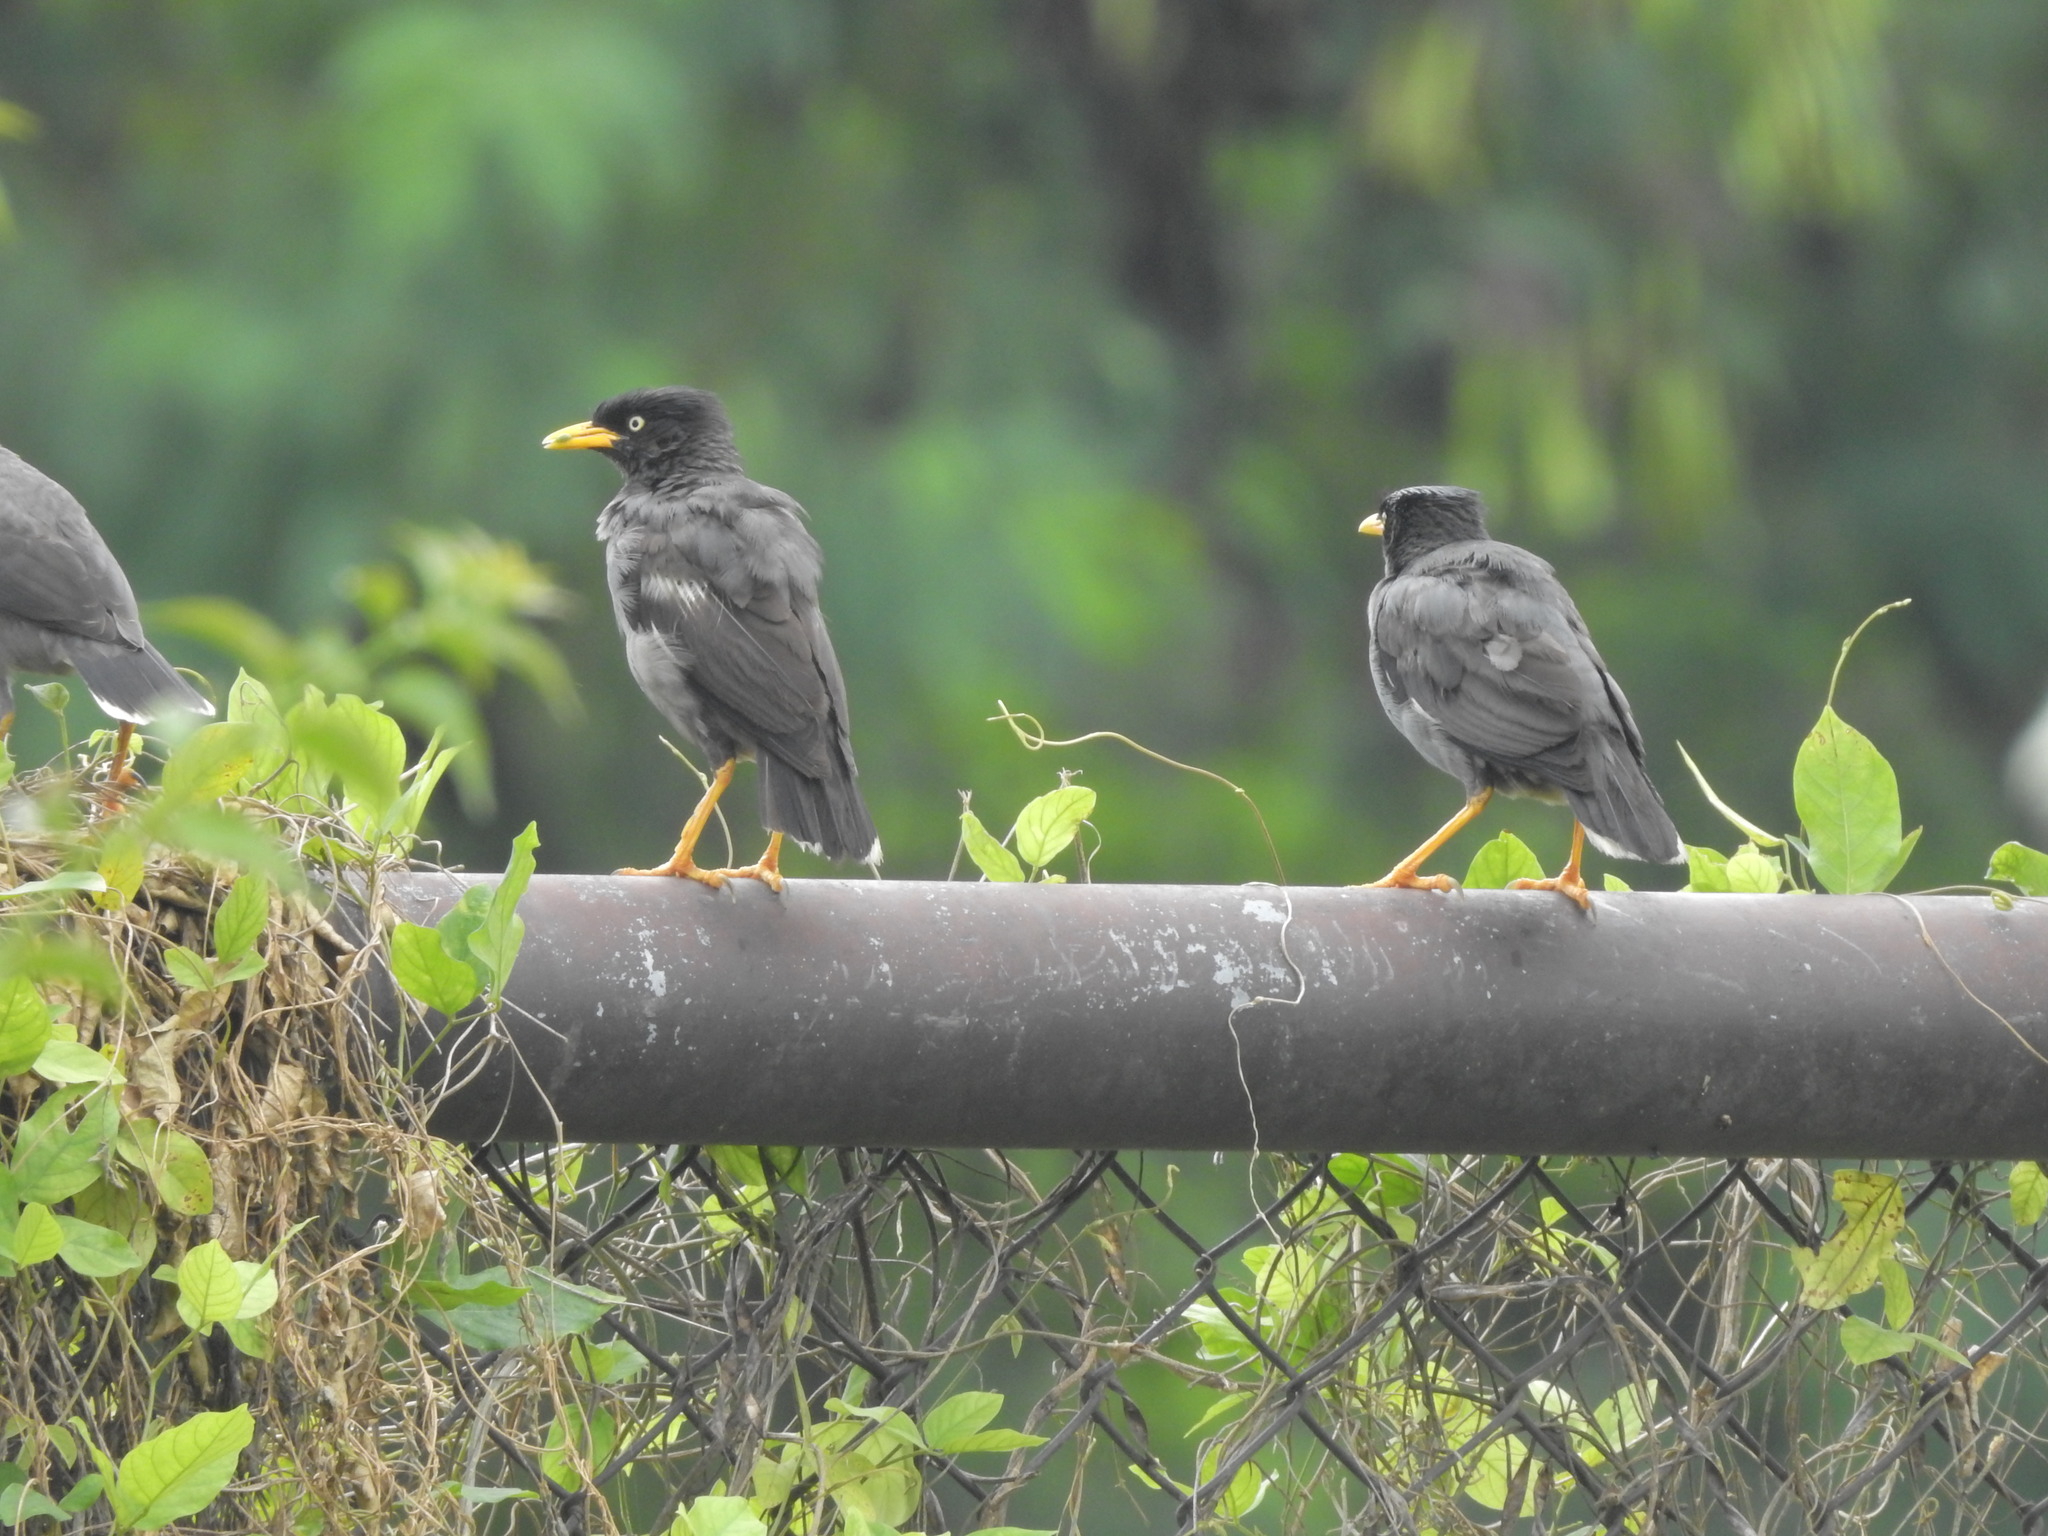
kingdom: Animalia
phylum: Chordata
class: Aves
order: Passeriformes
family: Sturnidae
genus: Acridotheres
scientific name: Acridotheres javanicus
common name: Javan myna
